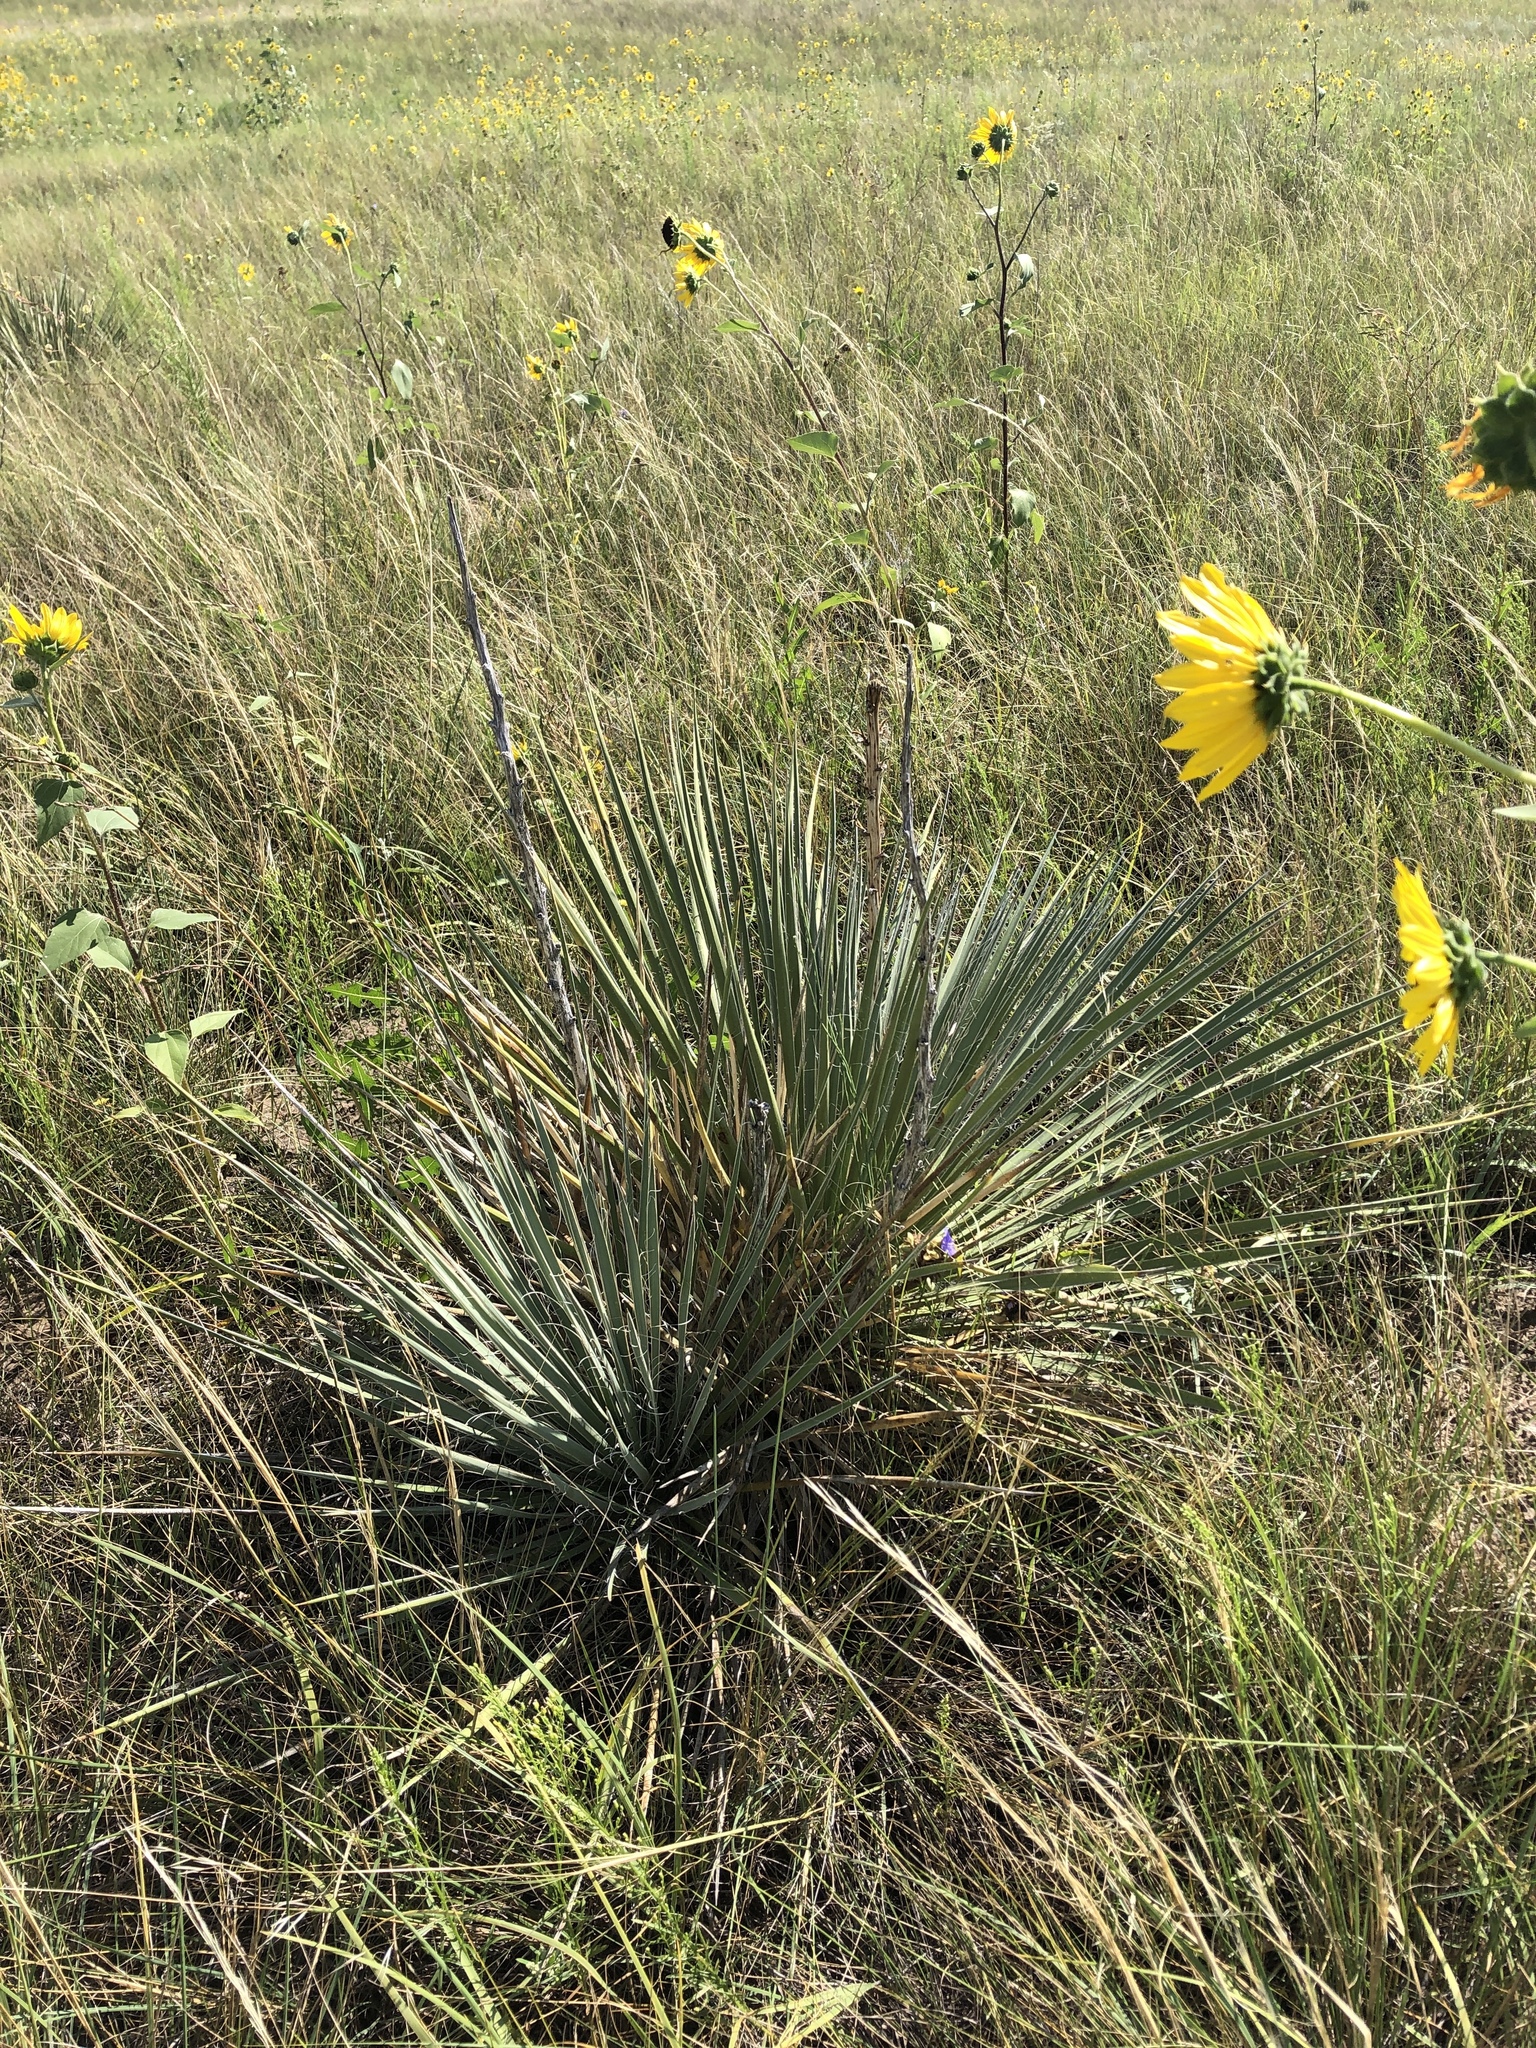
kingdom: Plantae
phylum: Tracheophyta
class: Liliopsida
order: Asparagales
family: Asparagaceae
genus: Yucca
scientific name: Yucca glauca
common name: Great plains yucca
